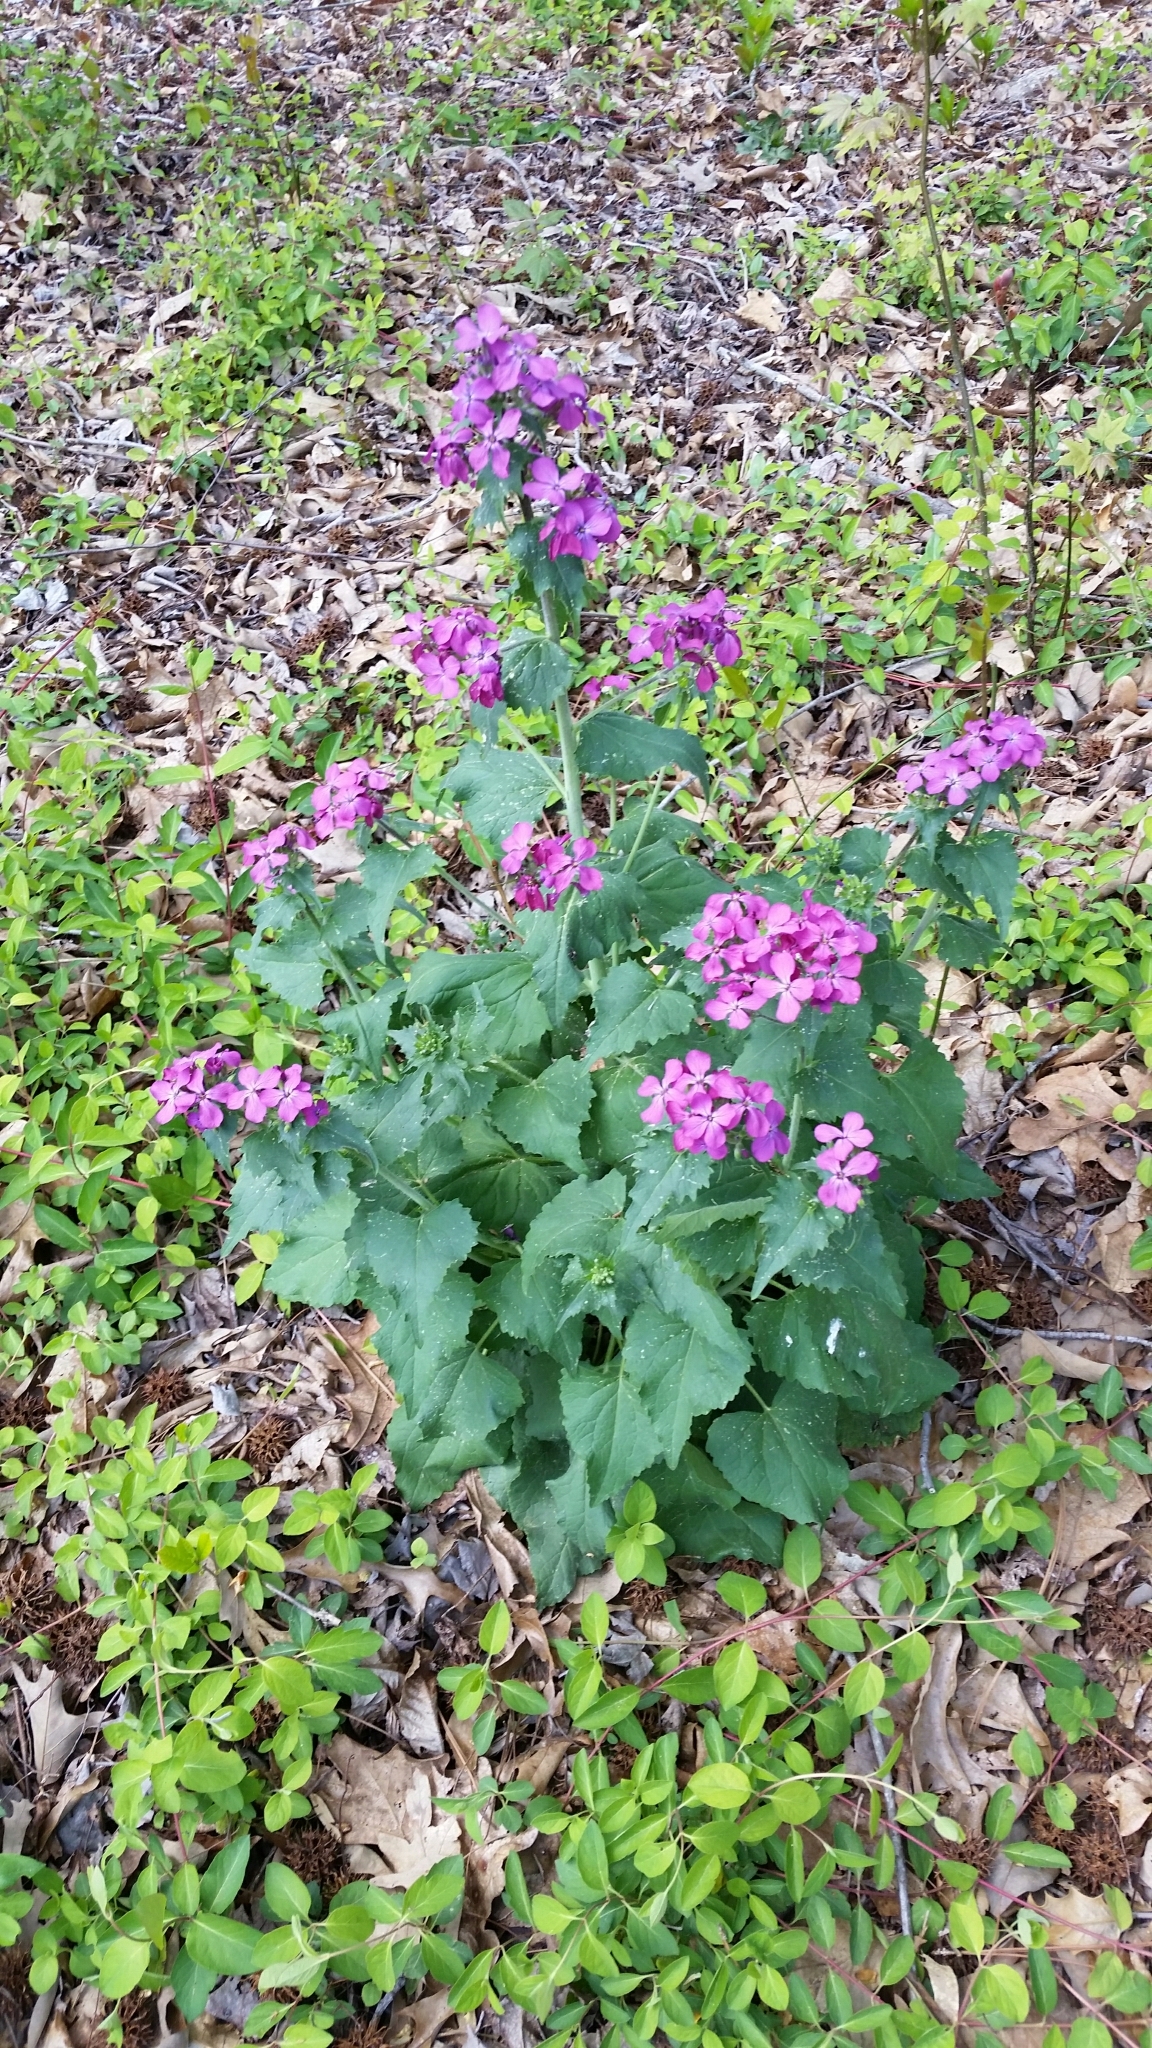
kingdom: Plantae
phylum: Tracheophyta
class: Magnoliopsida
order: Brassicales
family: Brassicaceae
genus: Lunaria
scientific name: Lunaria annua
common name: Honesty
